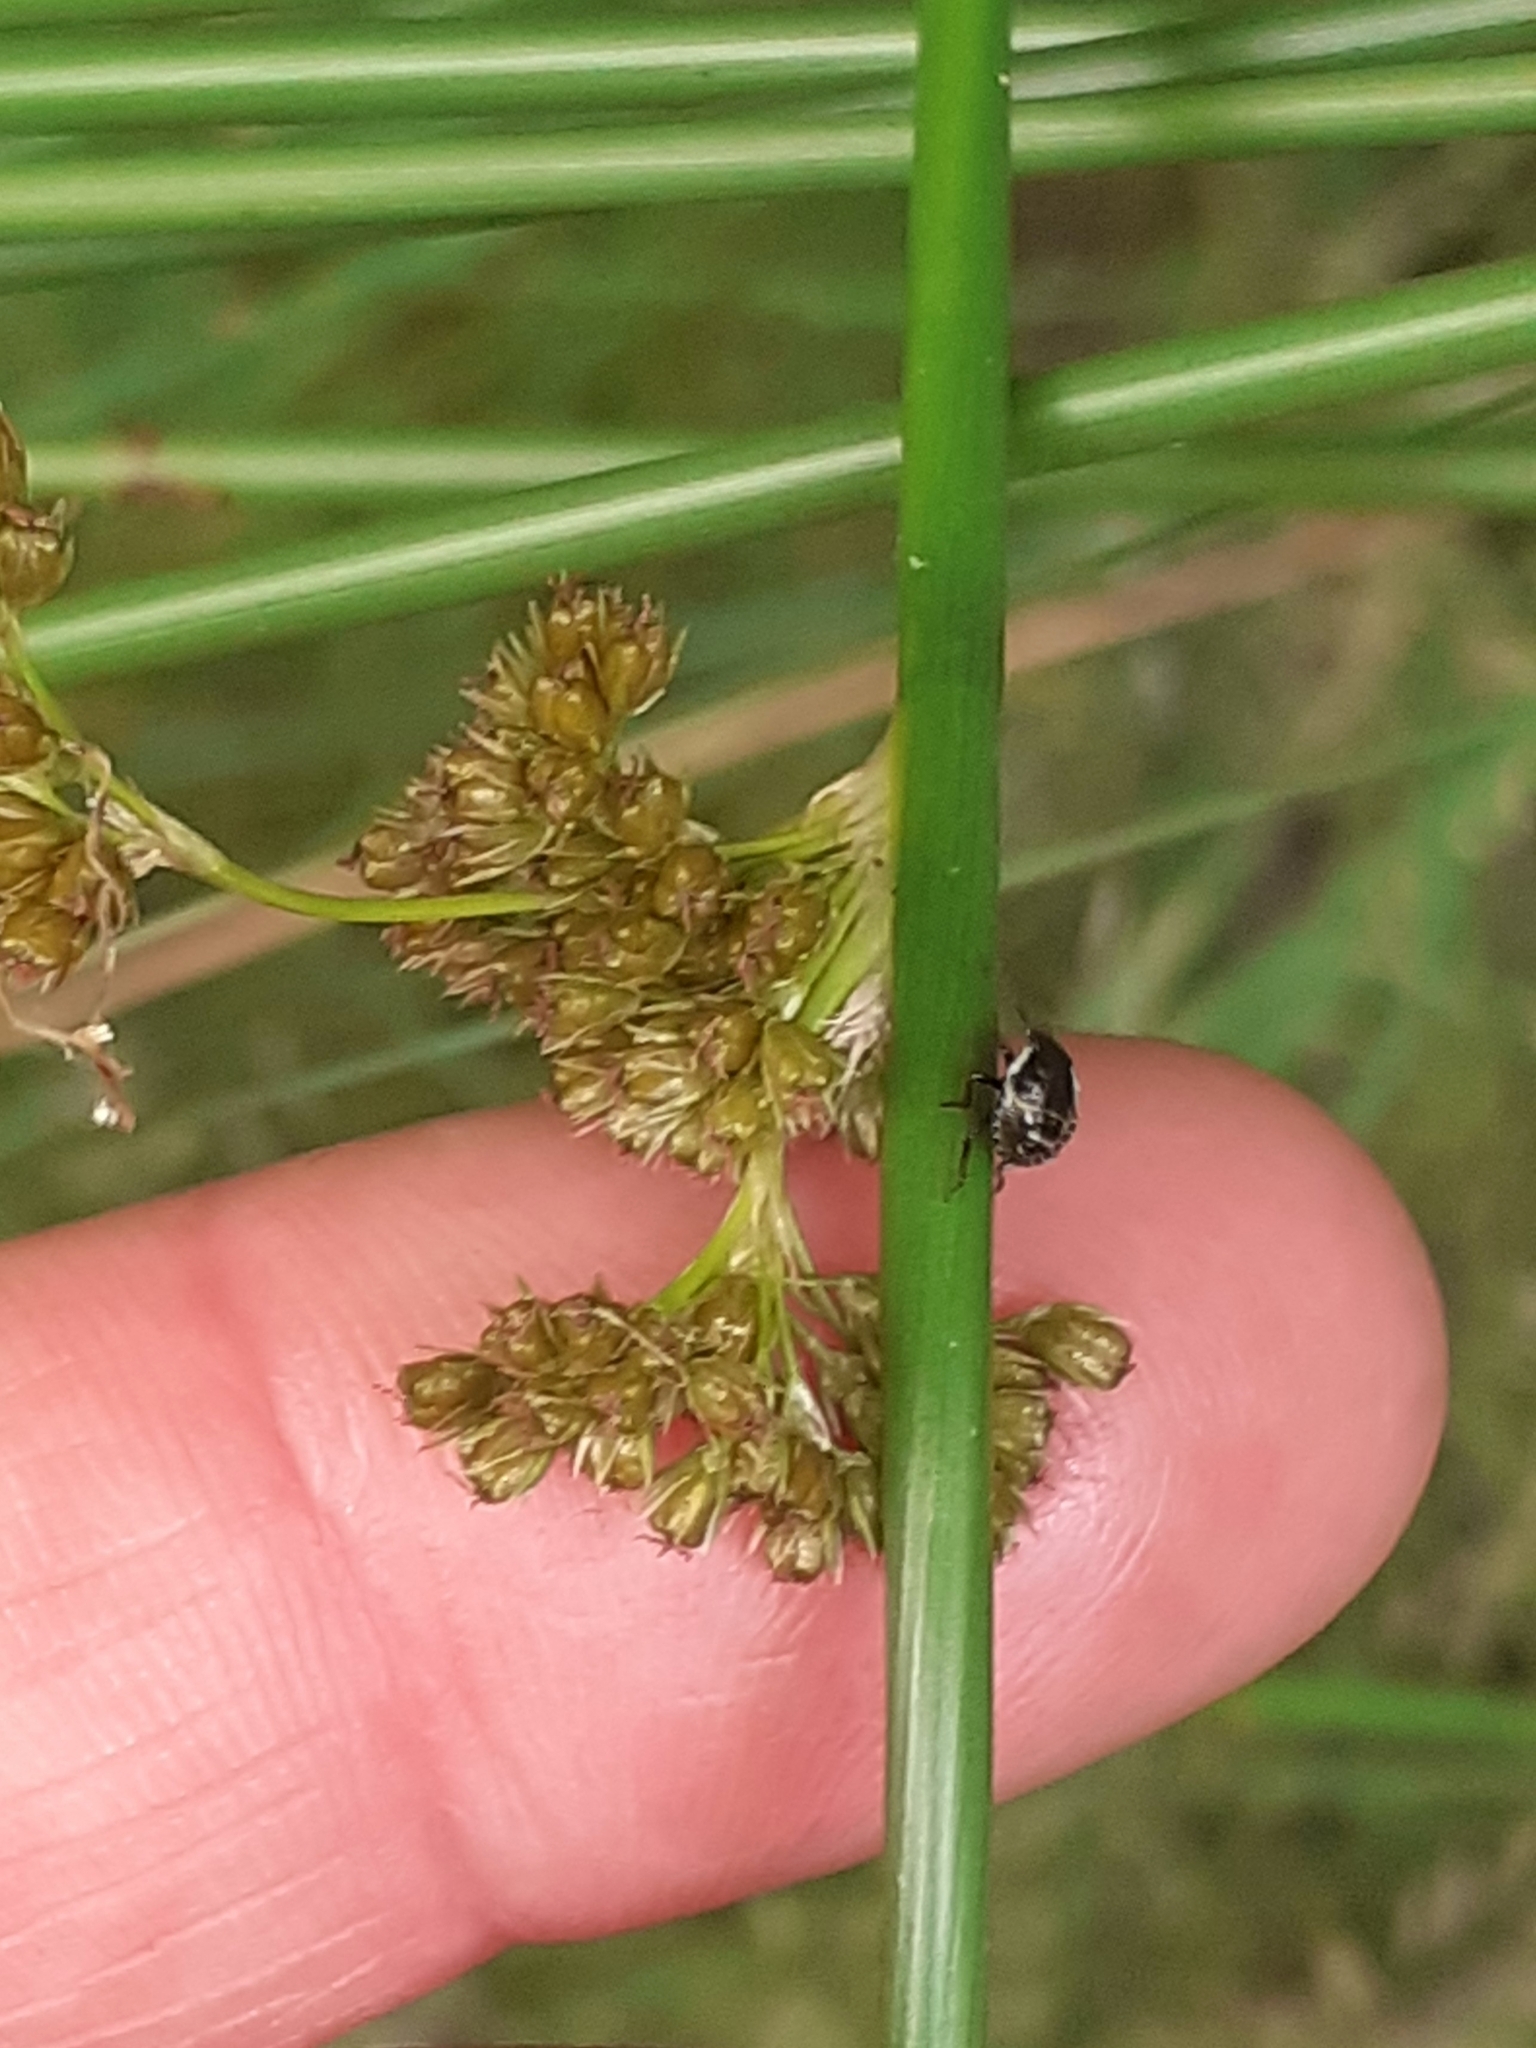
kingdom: Animalia
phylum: Arthropoda
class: Insecta
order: Hemiptera
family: Pentatomidae
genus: Palomena
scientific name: Palomena prasina
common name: Green shieldbug
